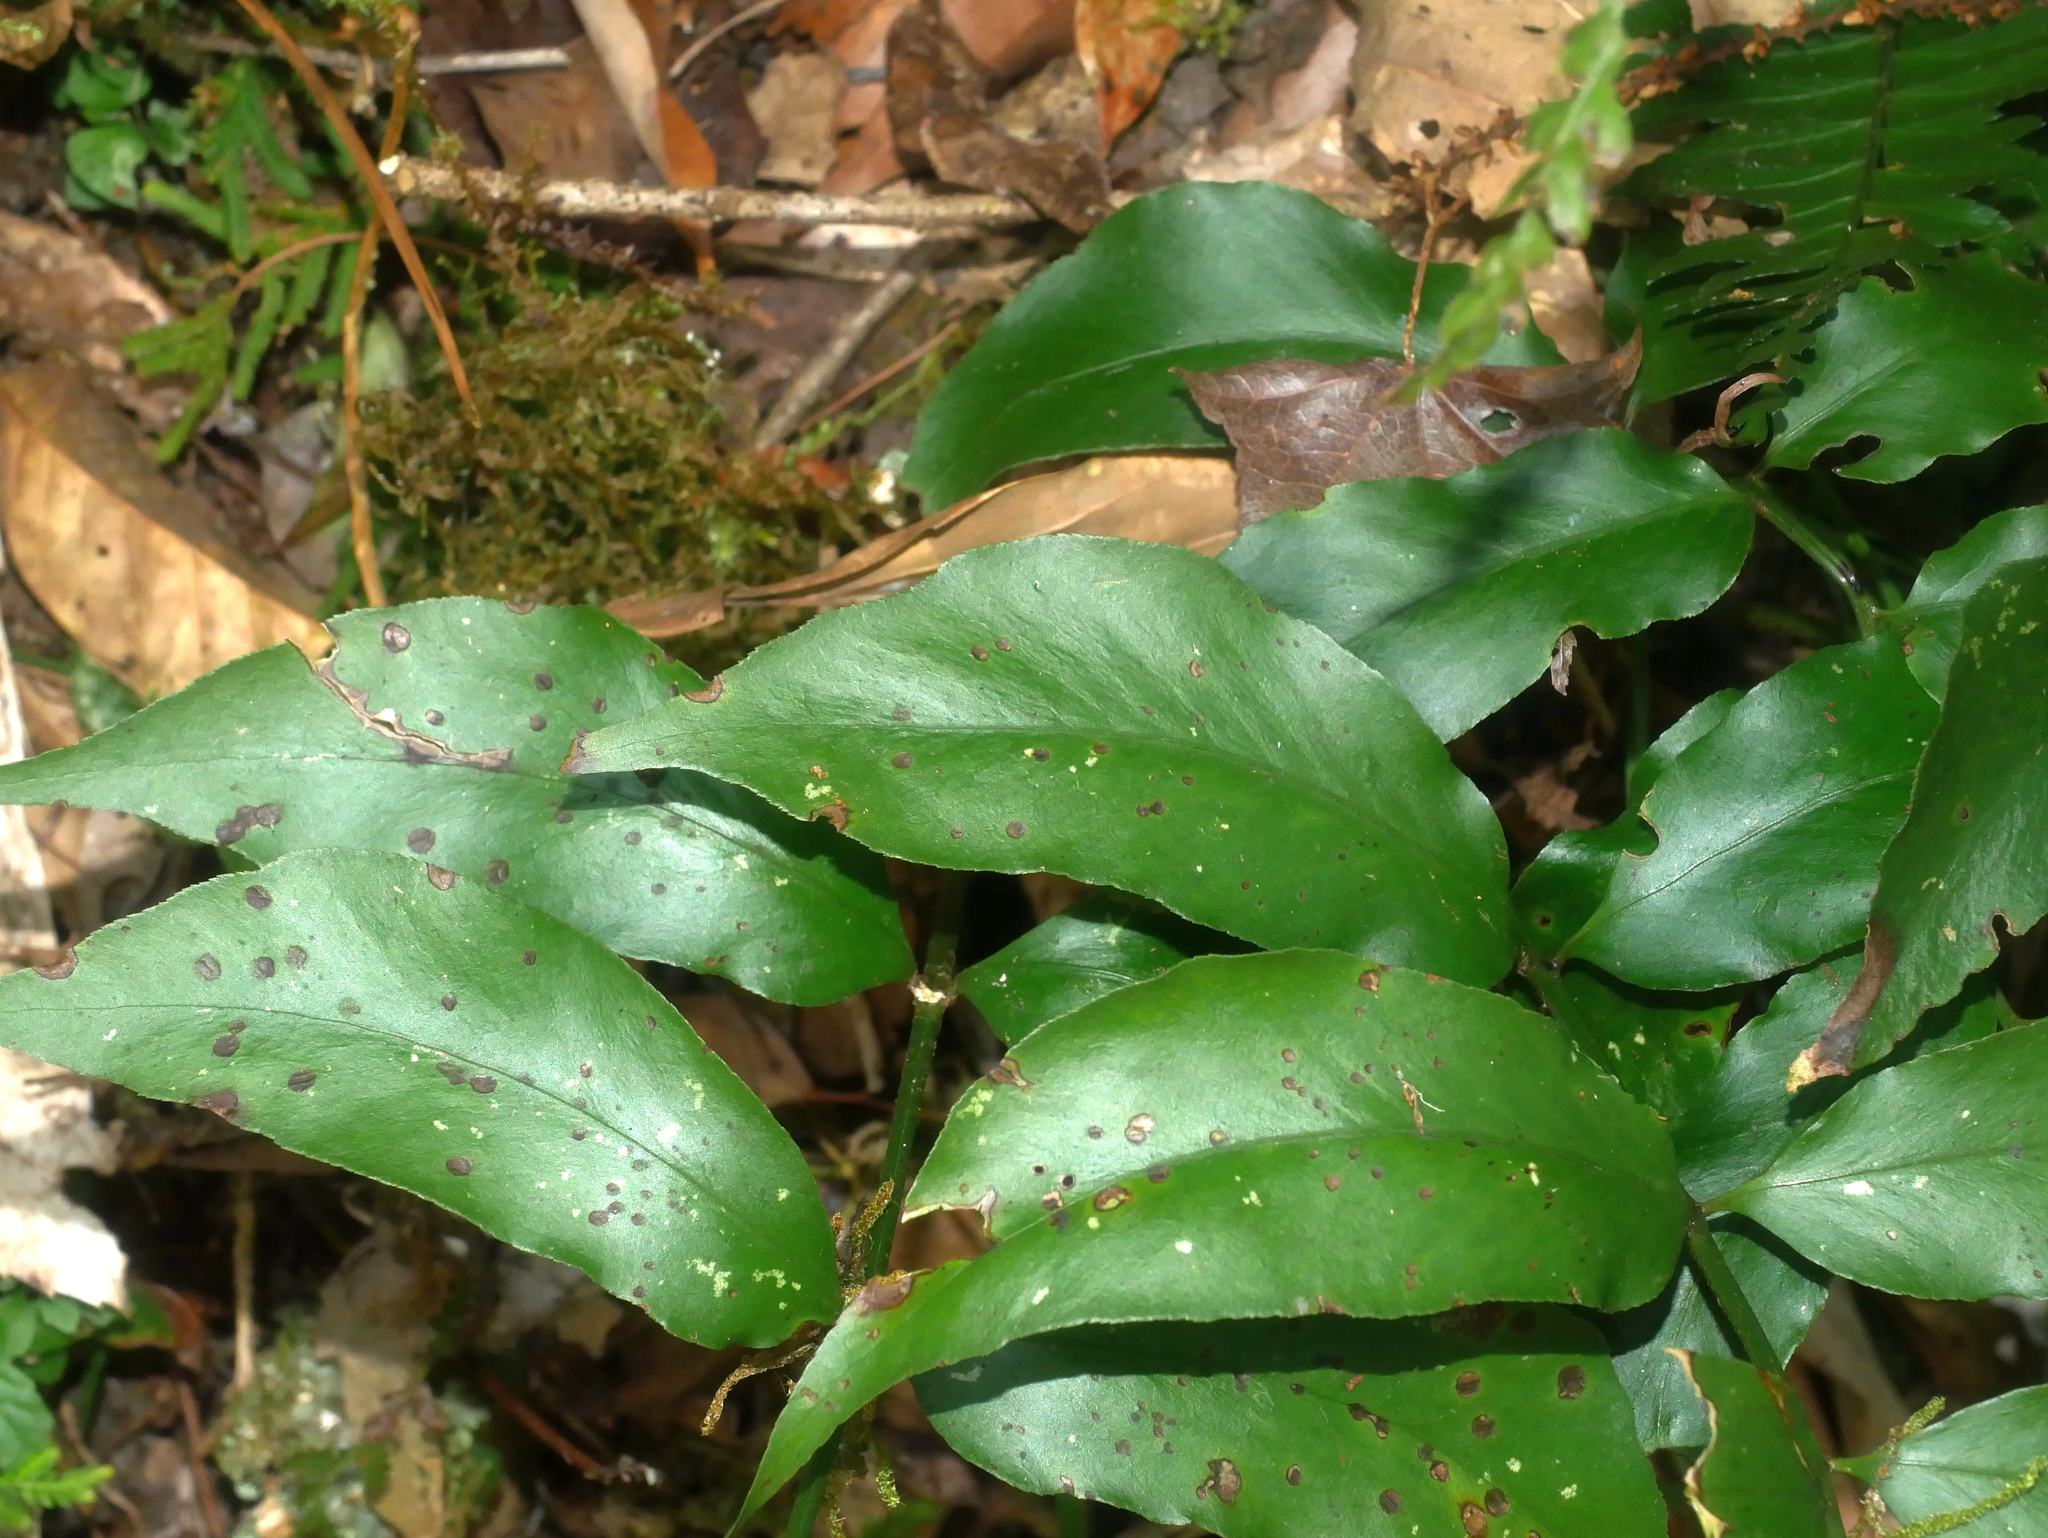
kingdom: Plantae
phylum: Tracheophyta
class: Polypodiopsida
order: Polypodiales
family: Dryopteridaceae
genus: Cyrtomium
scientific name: Cyrtomium taiwanianum
